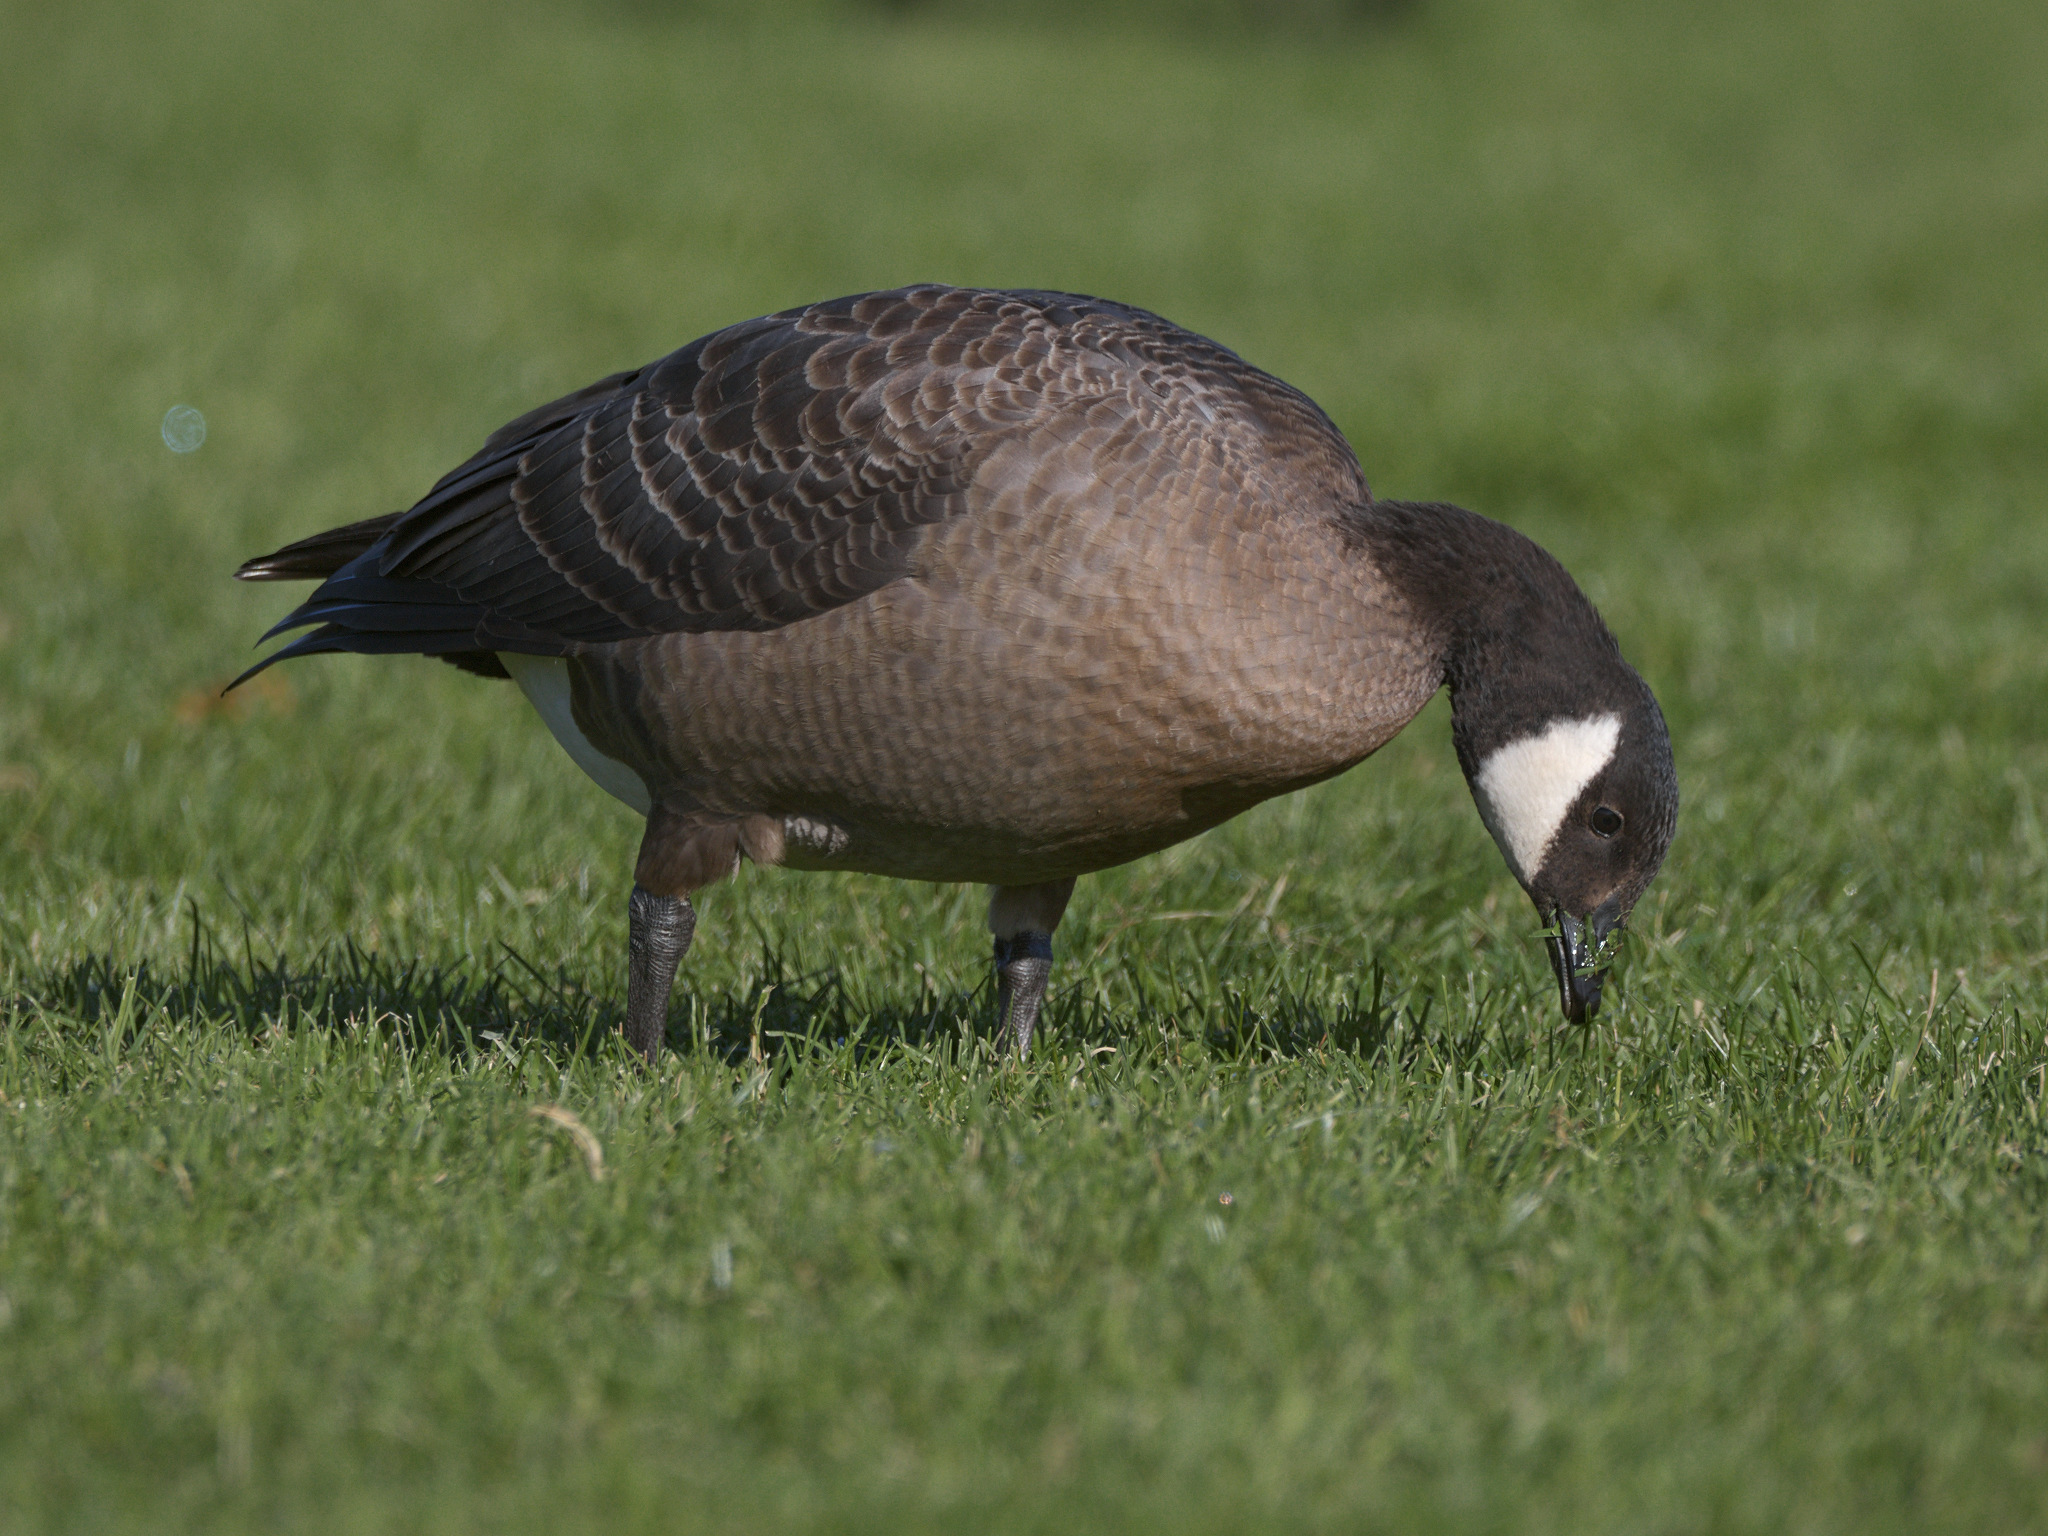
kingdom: Animalia
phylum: Chordata
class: Aves
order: Anseriformes
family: Anatidae
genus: Branta
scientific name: Branta hutchinsii
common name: Cackling goose
